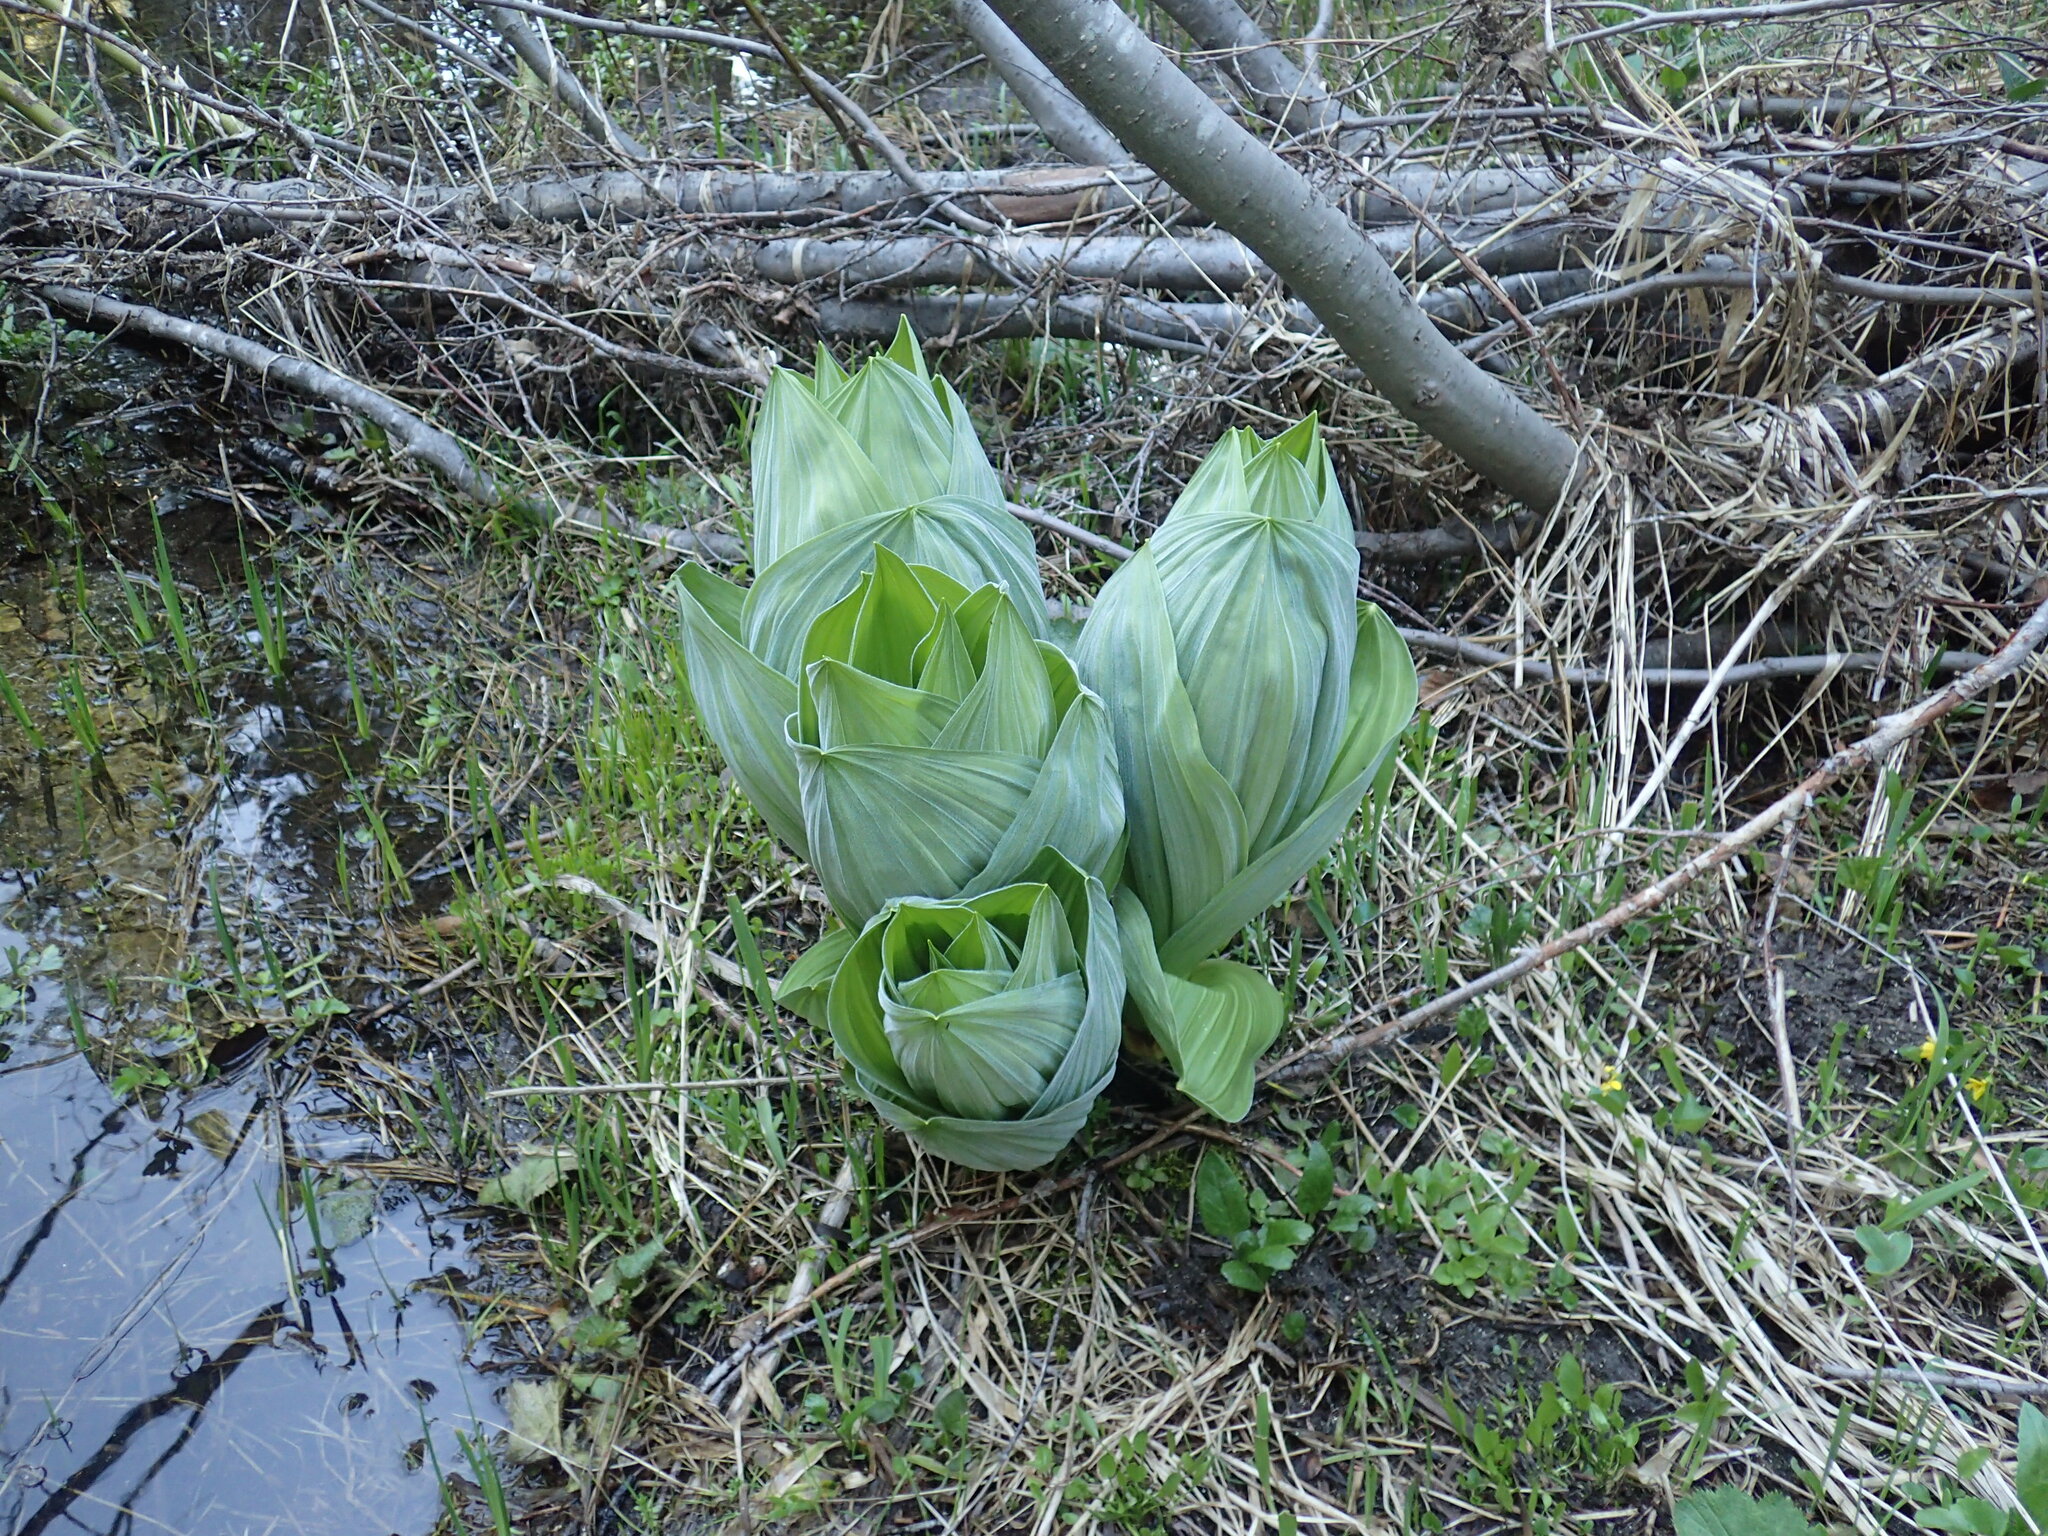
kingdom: Plantae
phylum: Tracheophyta
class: Liliopsida
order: Liliales
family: Melanthiaceae
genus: Veratrum
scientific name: Veratrum californicum
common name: California veratrum
